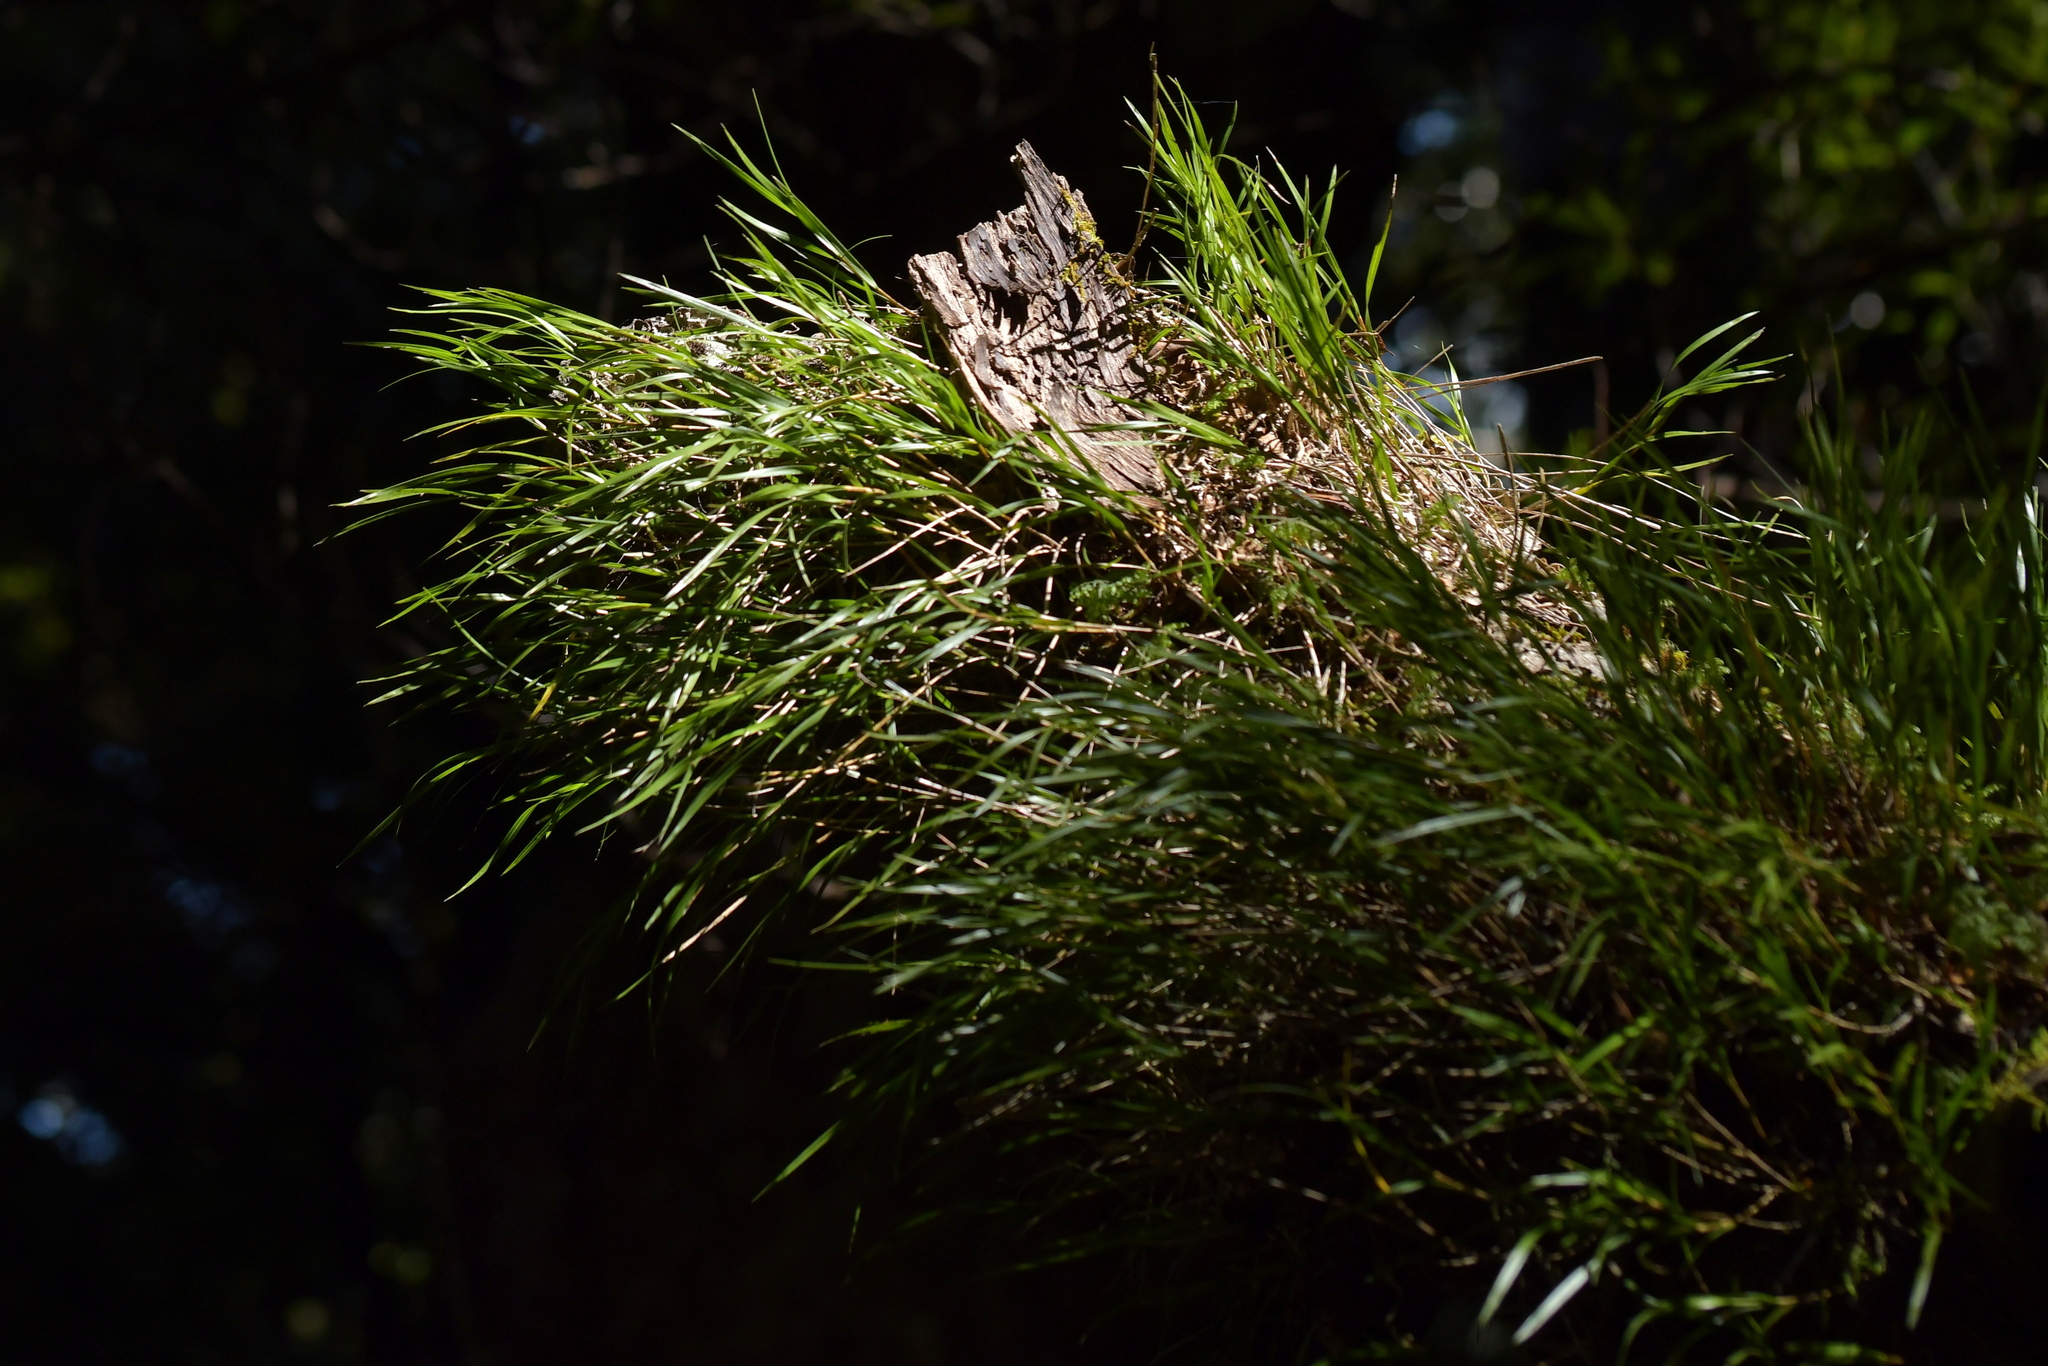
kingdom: Plantae
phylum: Tracheophyta
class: Liliopsida
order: Asparagales
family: Orchidaceae
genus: Earina
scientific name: Earina mucronata
